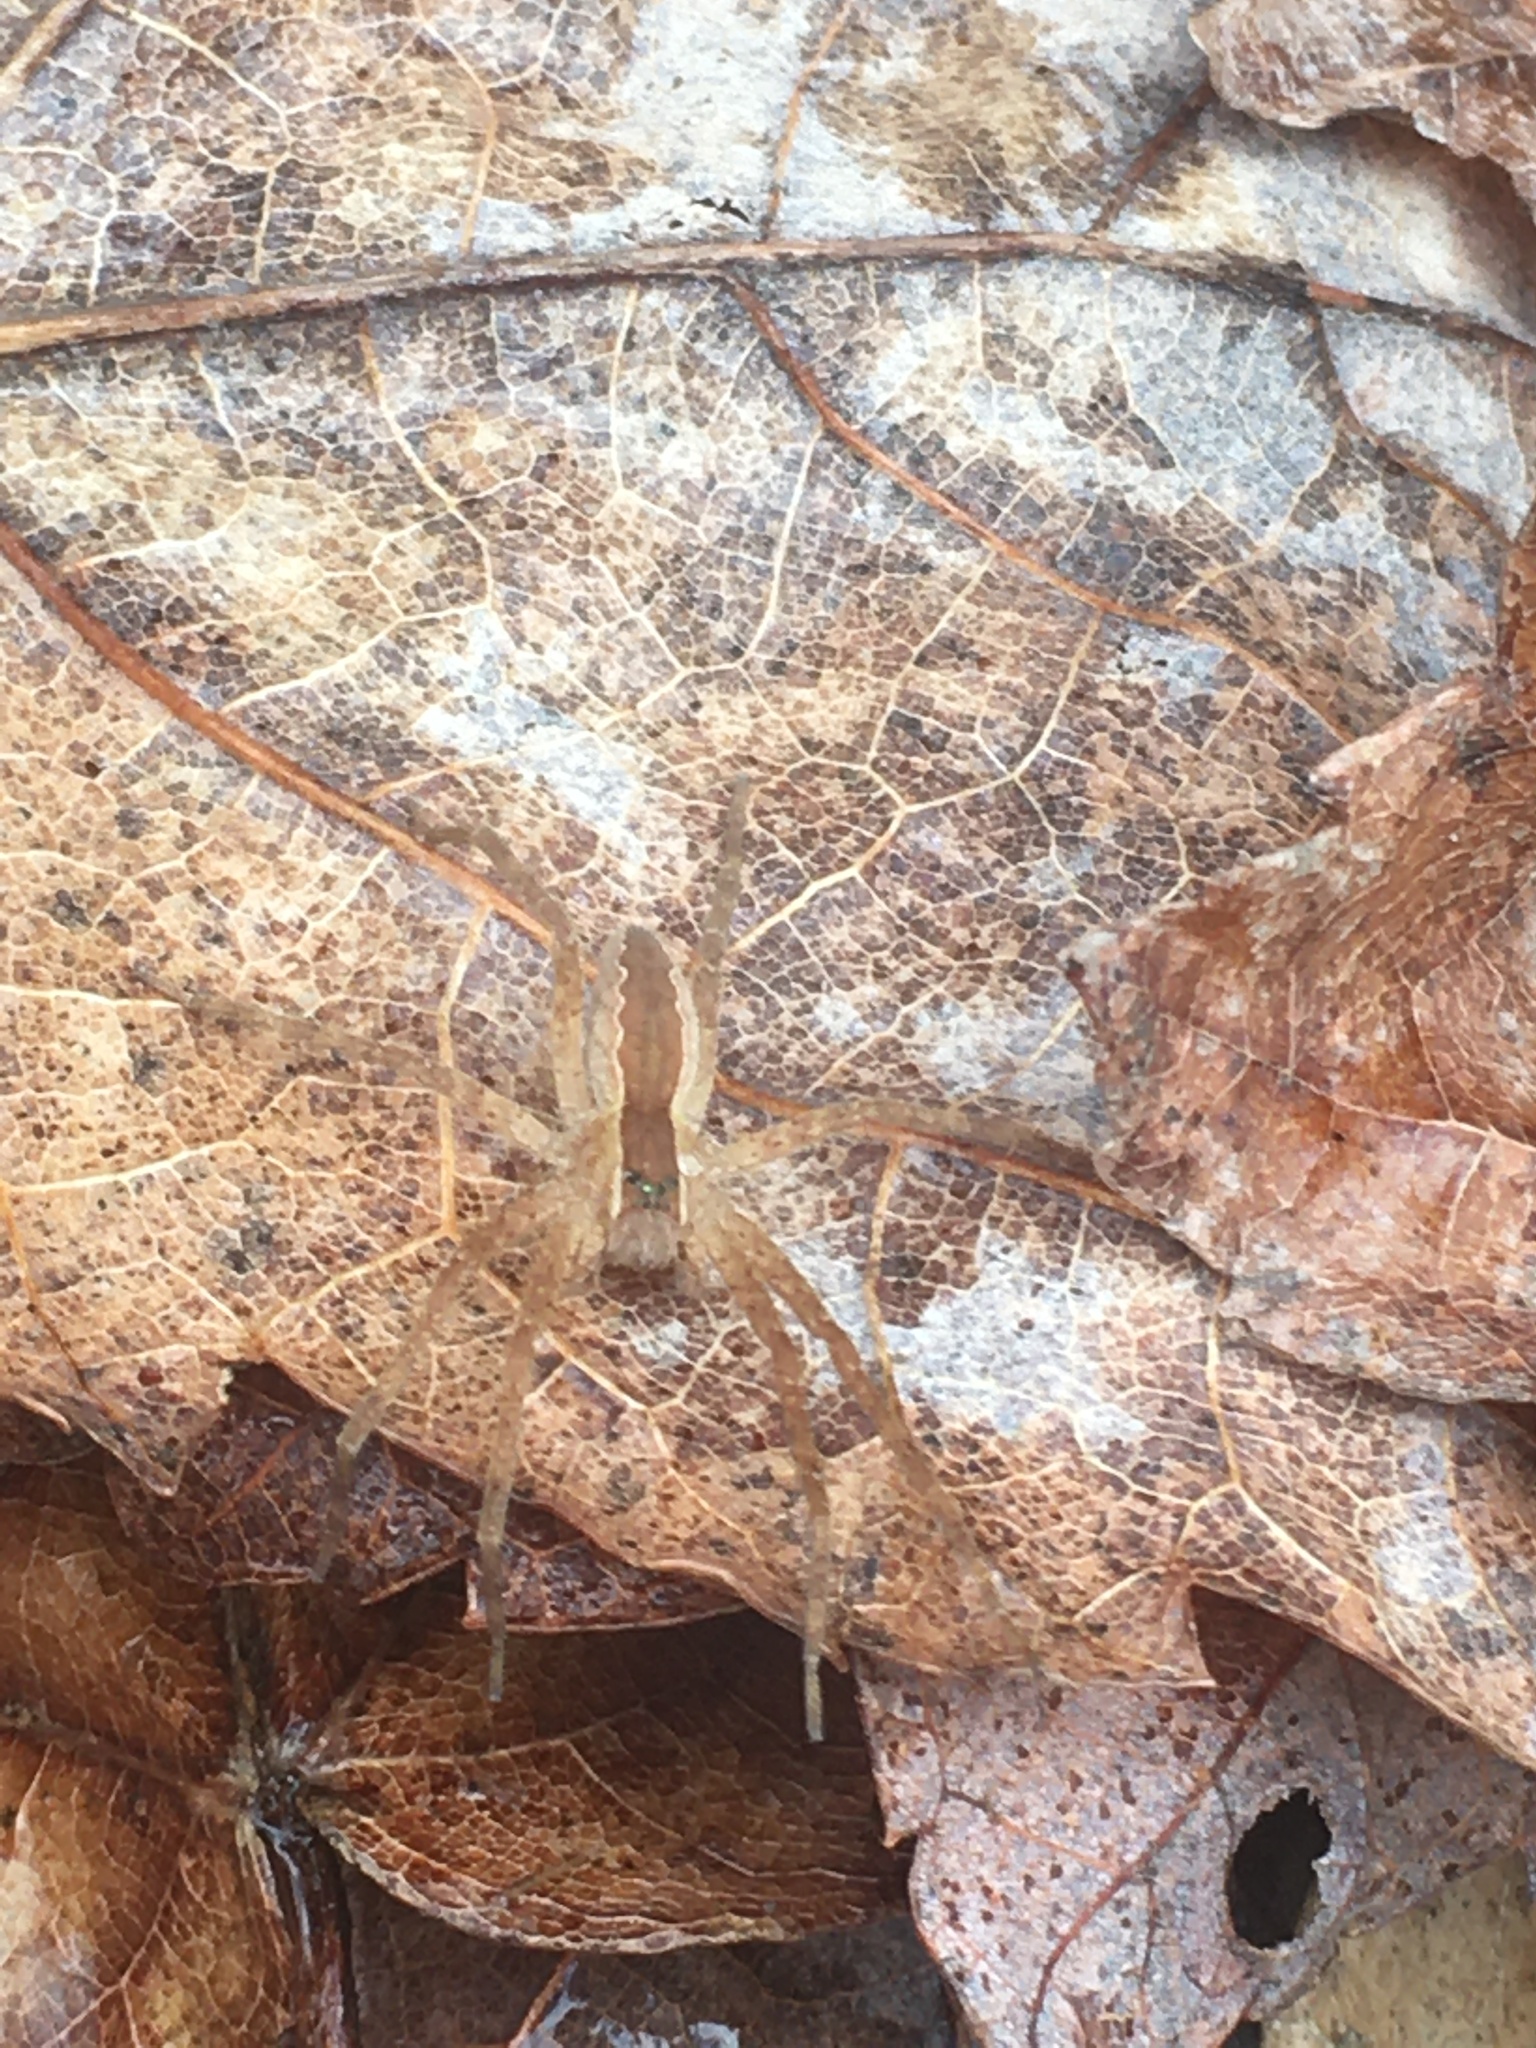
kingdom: Animalia
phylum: Arthropoda
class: Arachnida
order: Araneae
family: Pisauridae
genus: Pisaurina
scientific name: Pisaurina mira
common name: American nursery web spider
